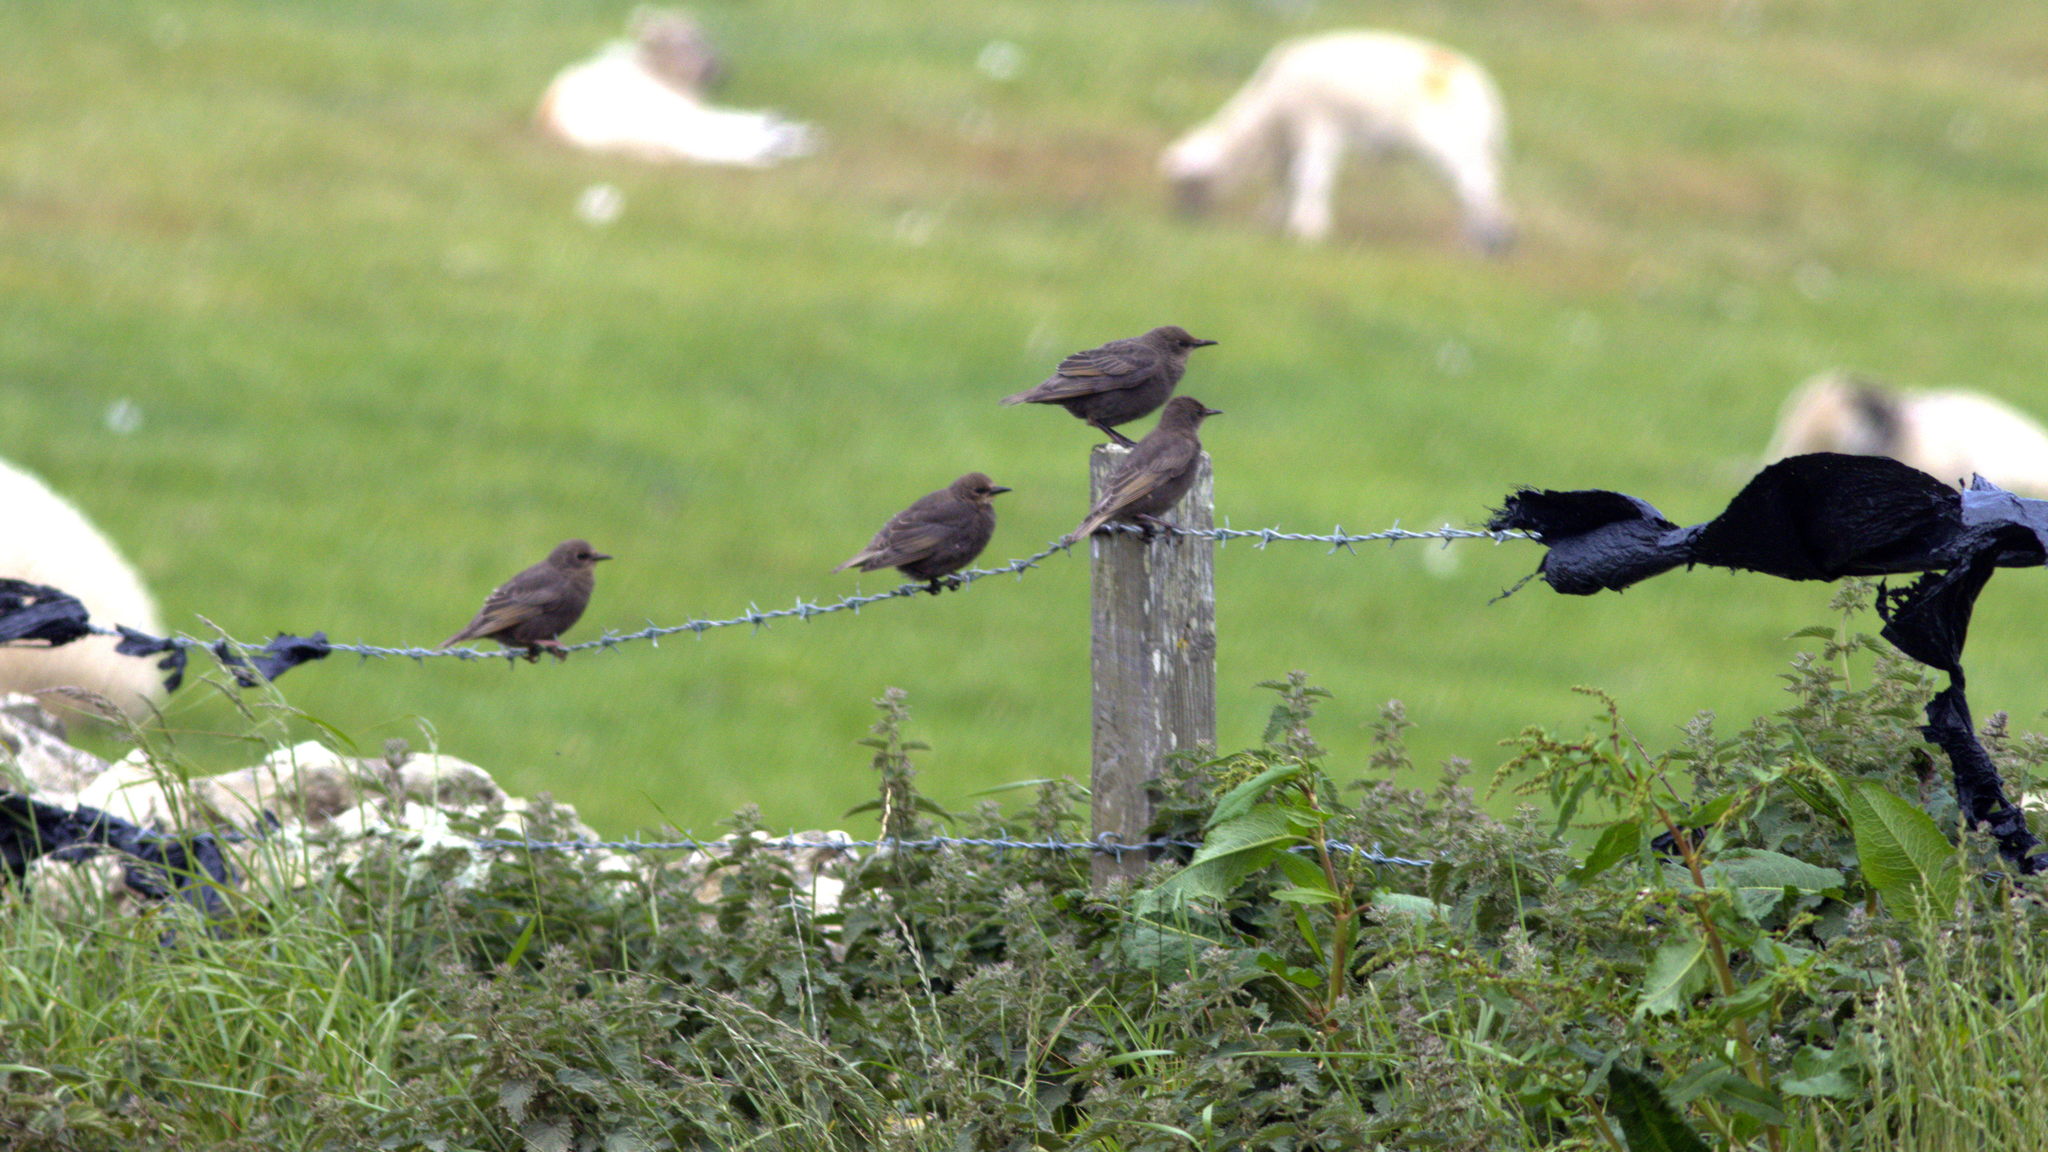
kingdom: Animalia
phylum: Chordata
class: Aves
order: Passeriformes
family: Sturnidae
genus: Sturnus
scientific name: Sturnus vulgaris
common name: Common starling
